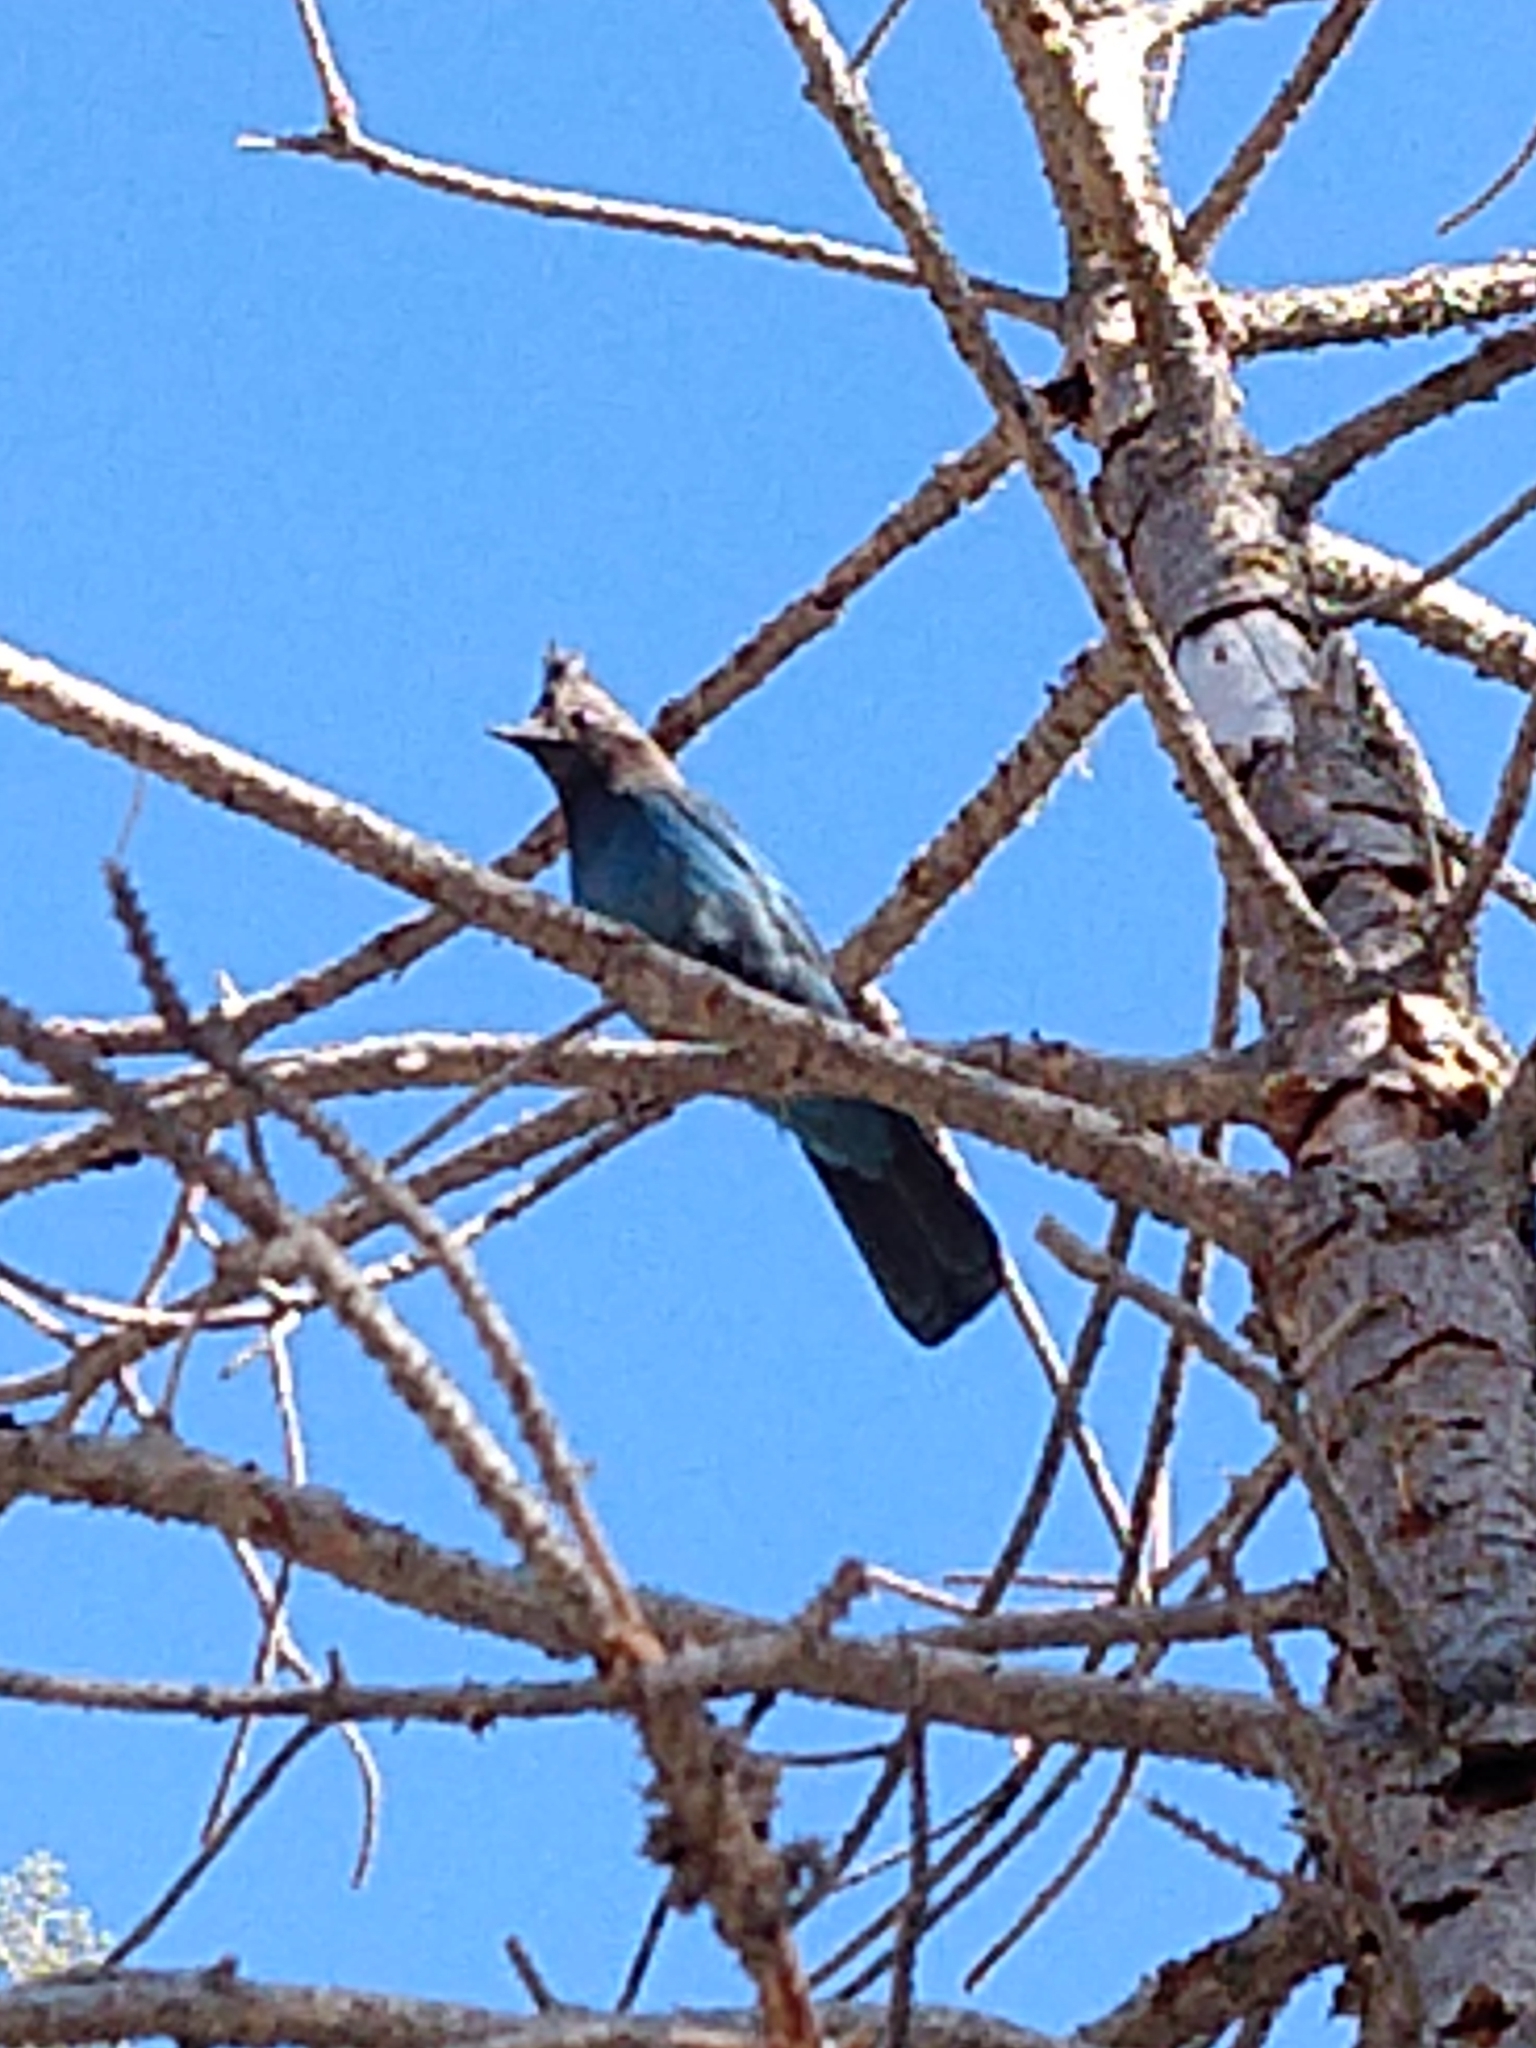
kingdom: Animalia
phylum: Chordata
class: Aves
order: Passeriformes
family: Corvidae
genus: Cyanocitta
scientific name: Cyanocitta stelleri
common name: Steller's jay
